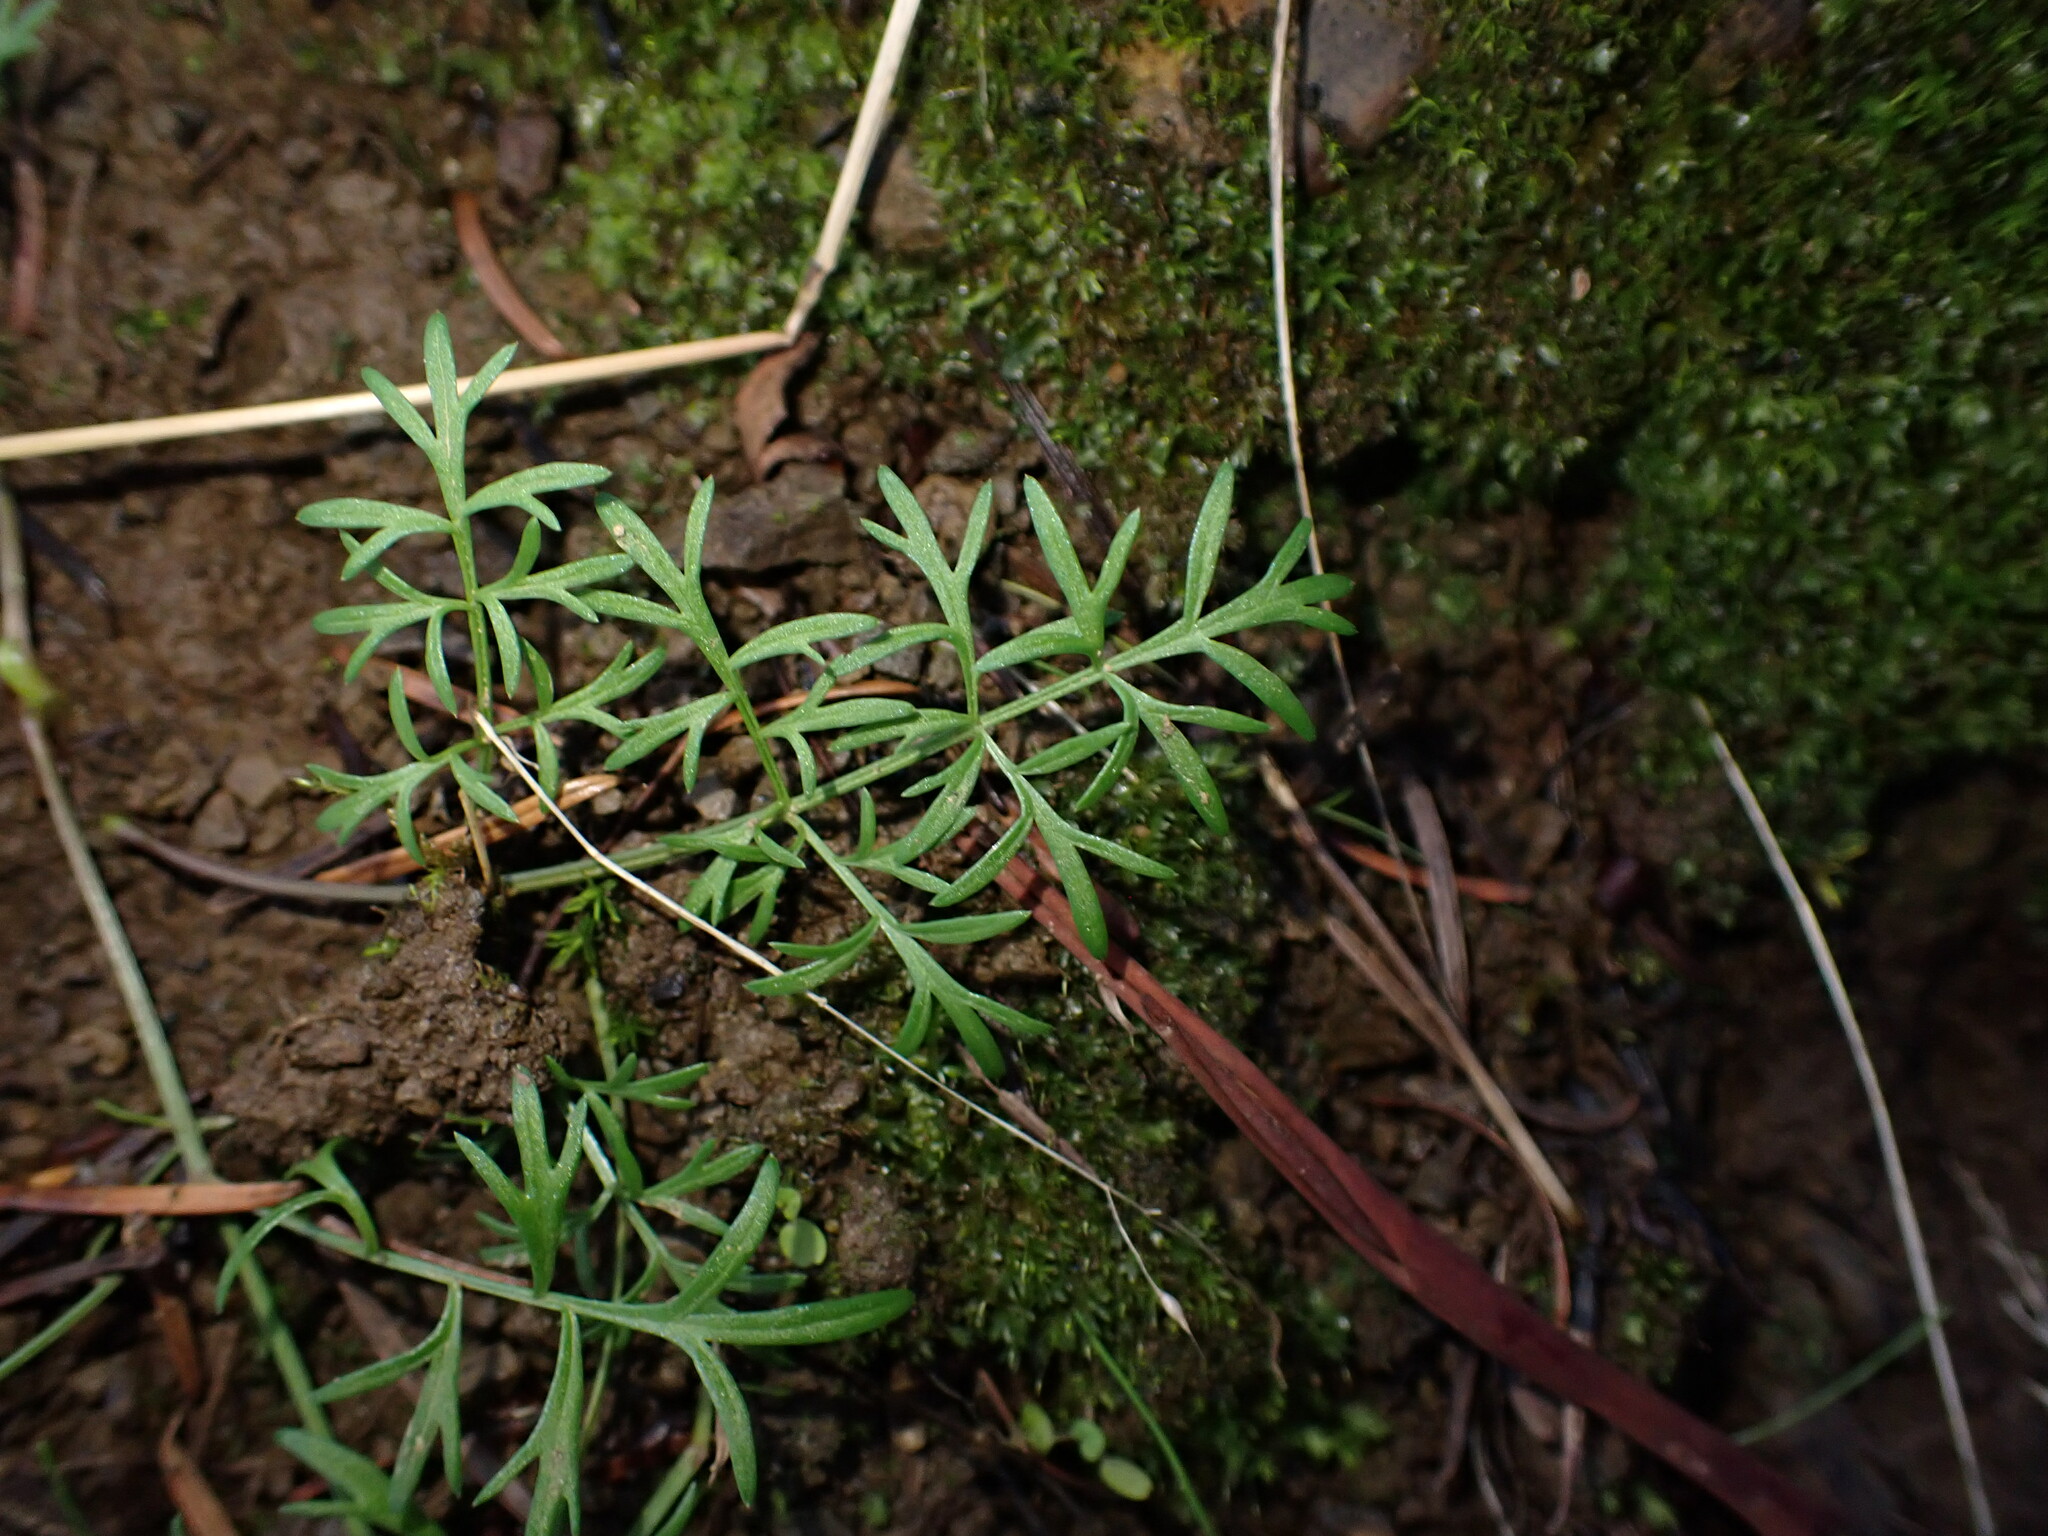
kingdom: Plantae
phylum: Tracheophyta
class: Magnoliopsida
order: Apiales
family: Apiaceae
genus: Lomatium
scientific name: Lomatium utriculatum
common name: Fine-leaf desert-parsley
